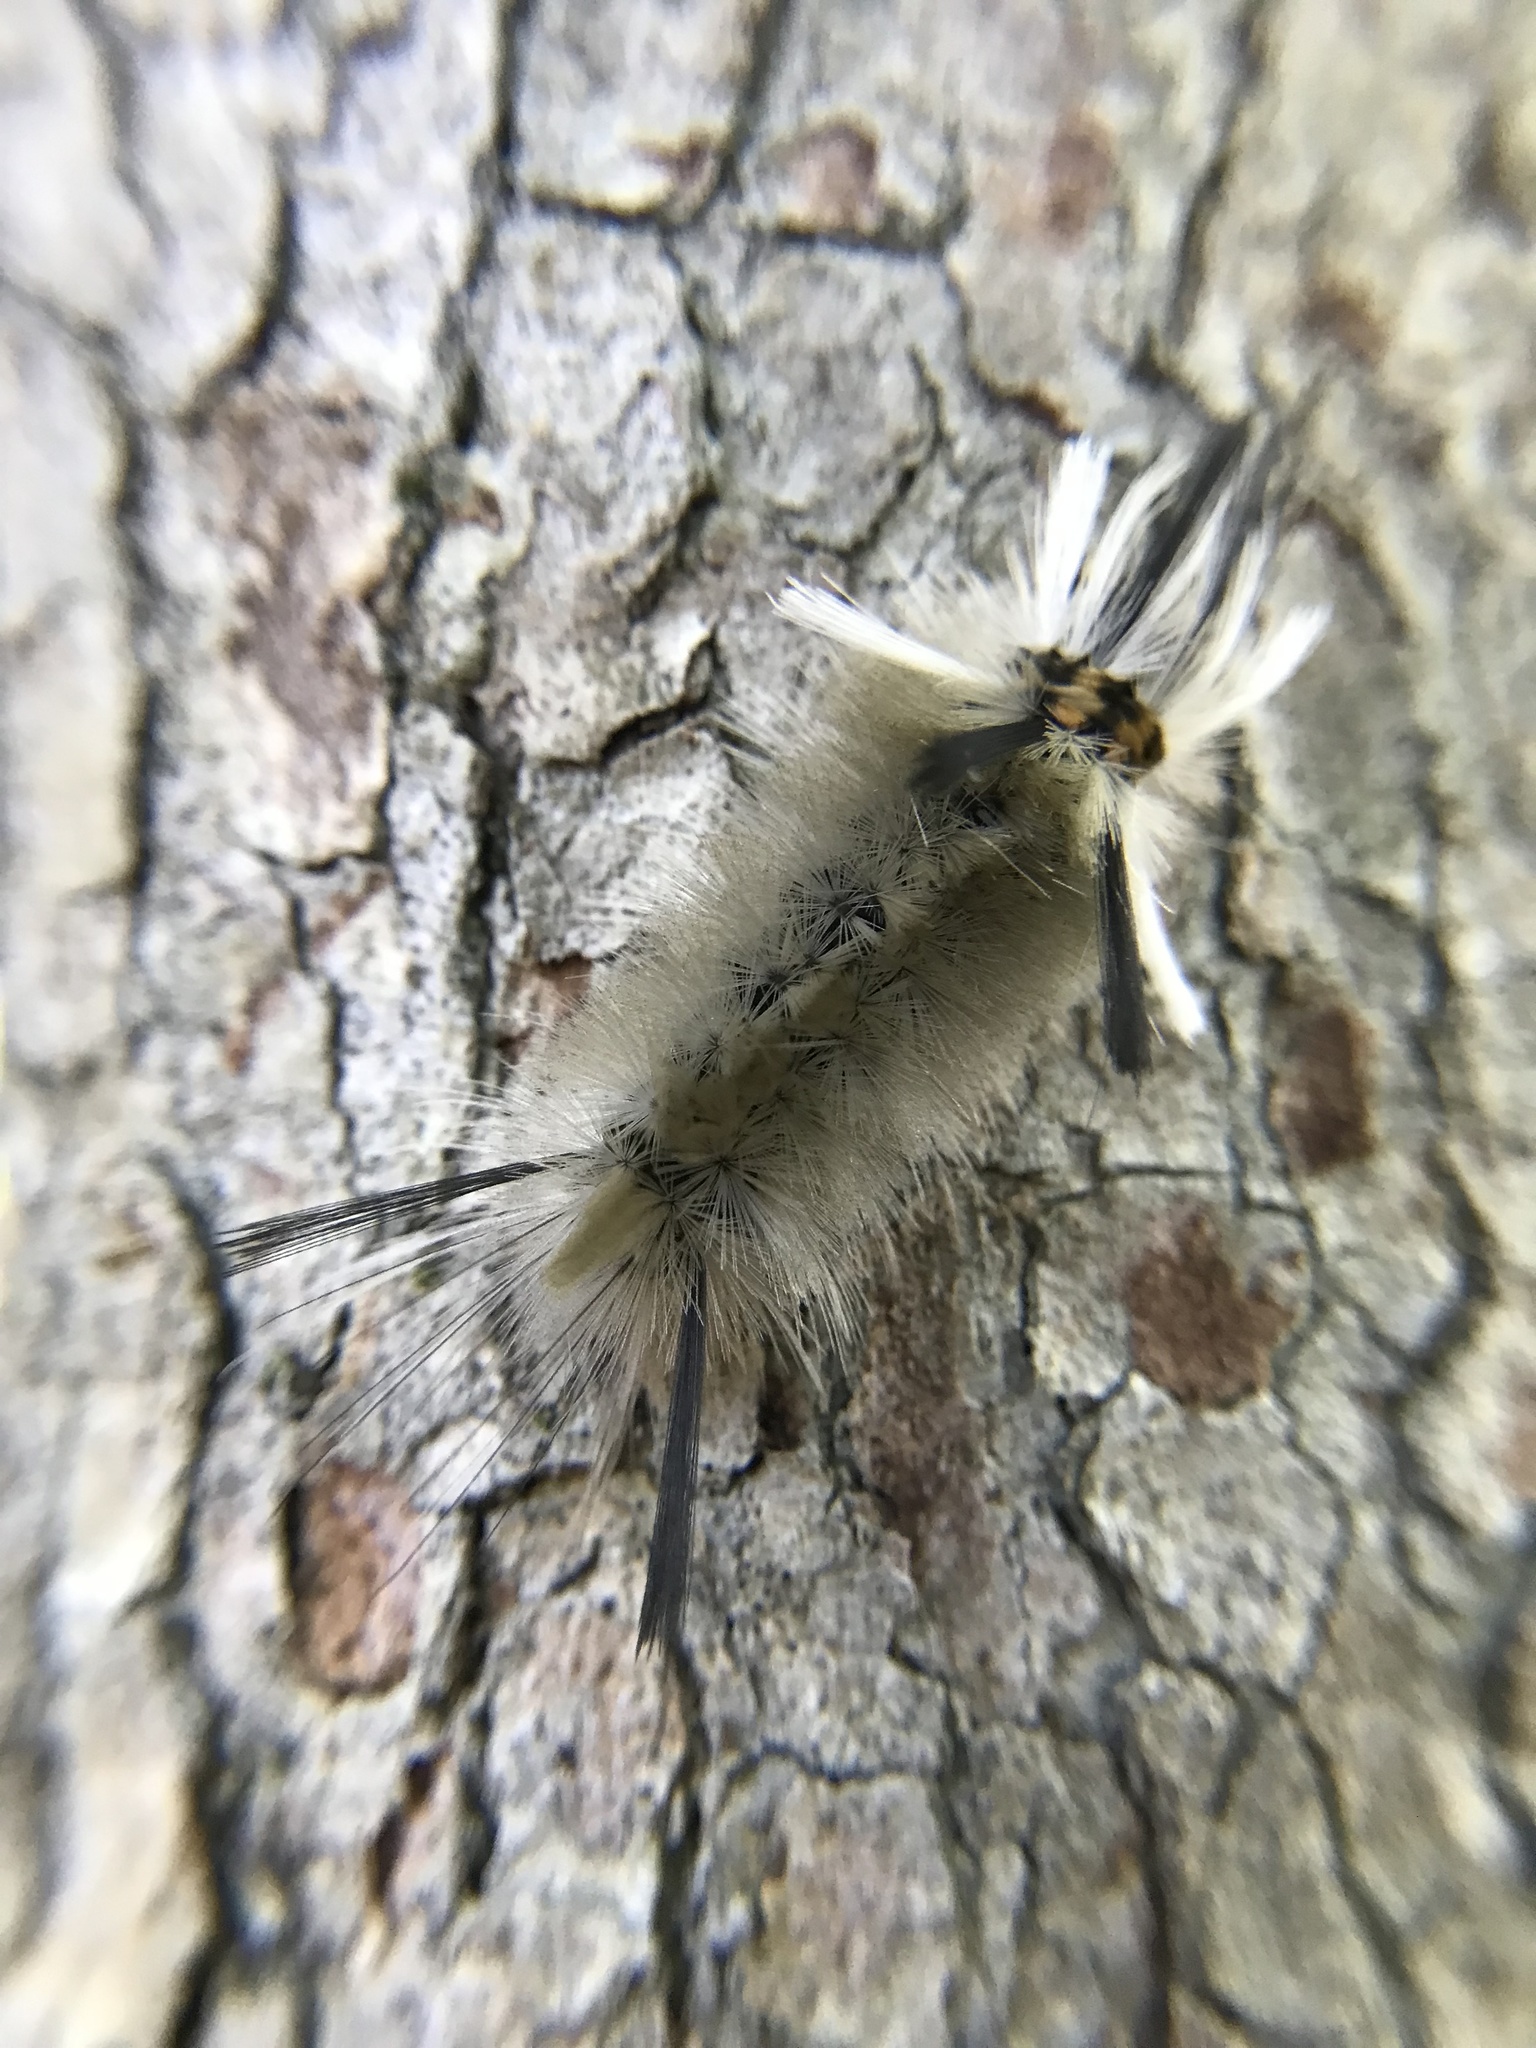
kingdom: Animalia
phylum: Arthropoda
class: Insecta
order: Lepidoptera
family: Erebidae
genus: Halysidota
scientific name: Halysidota tessellaris
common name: Banded tussock moth
